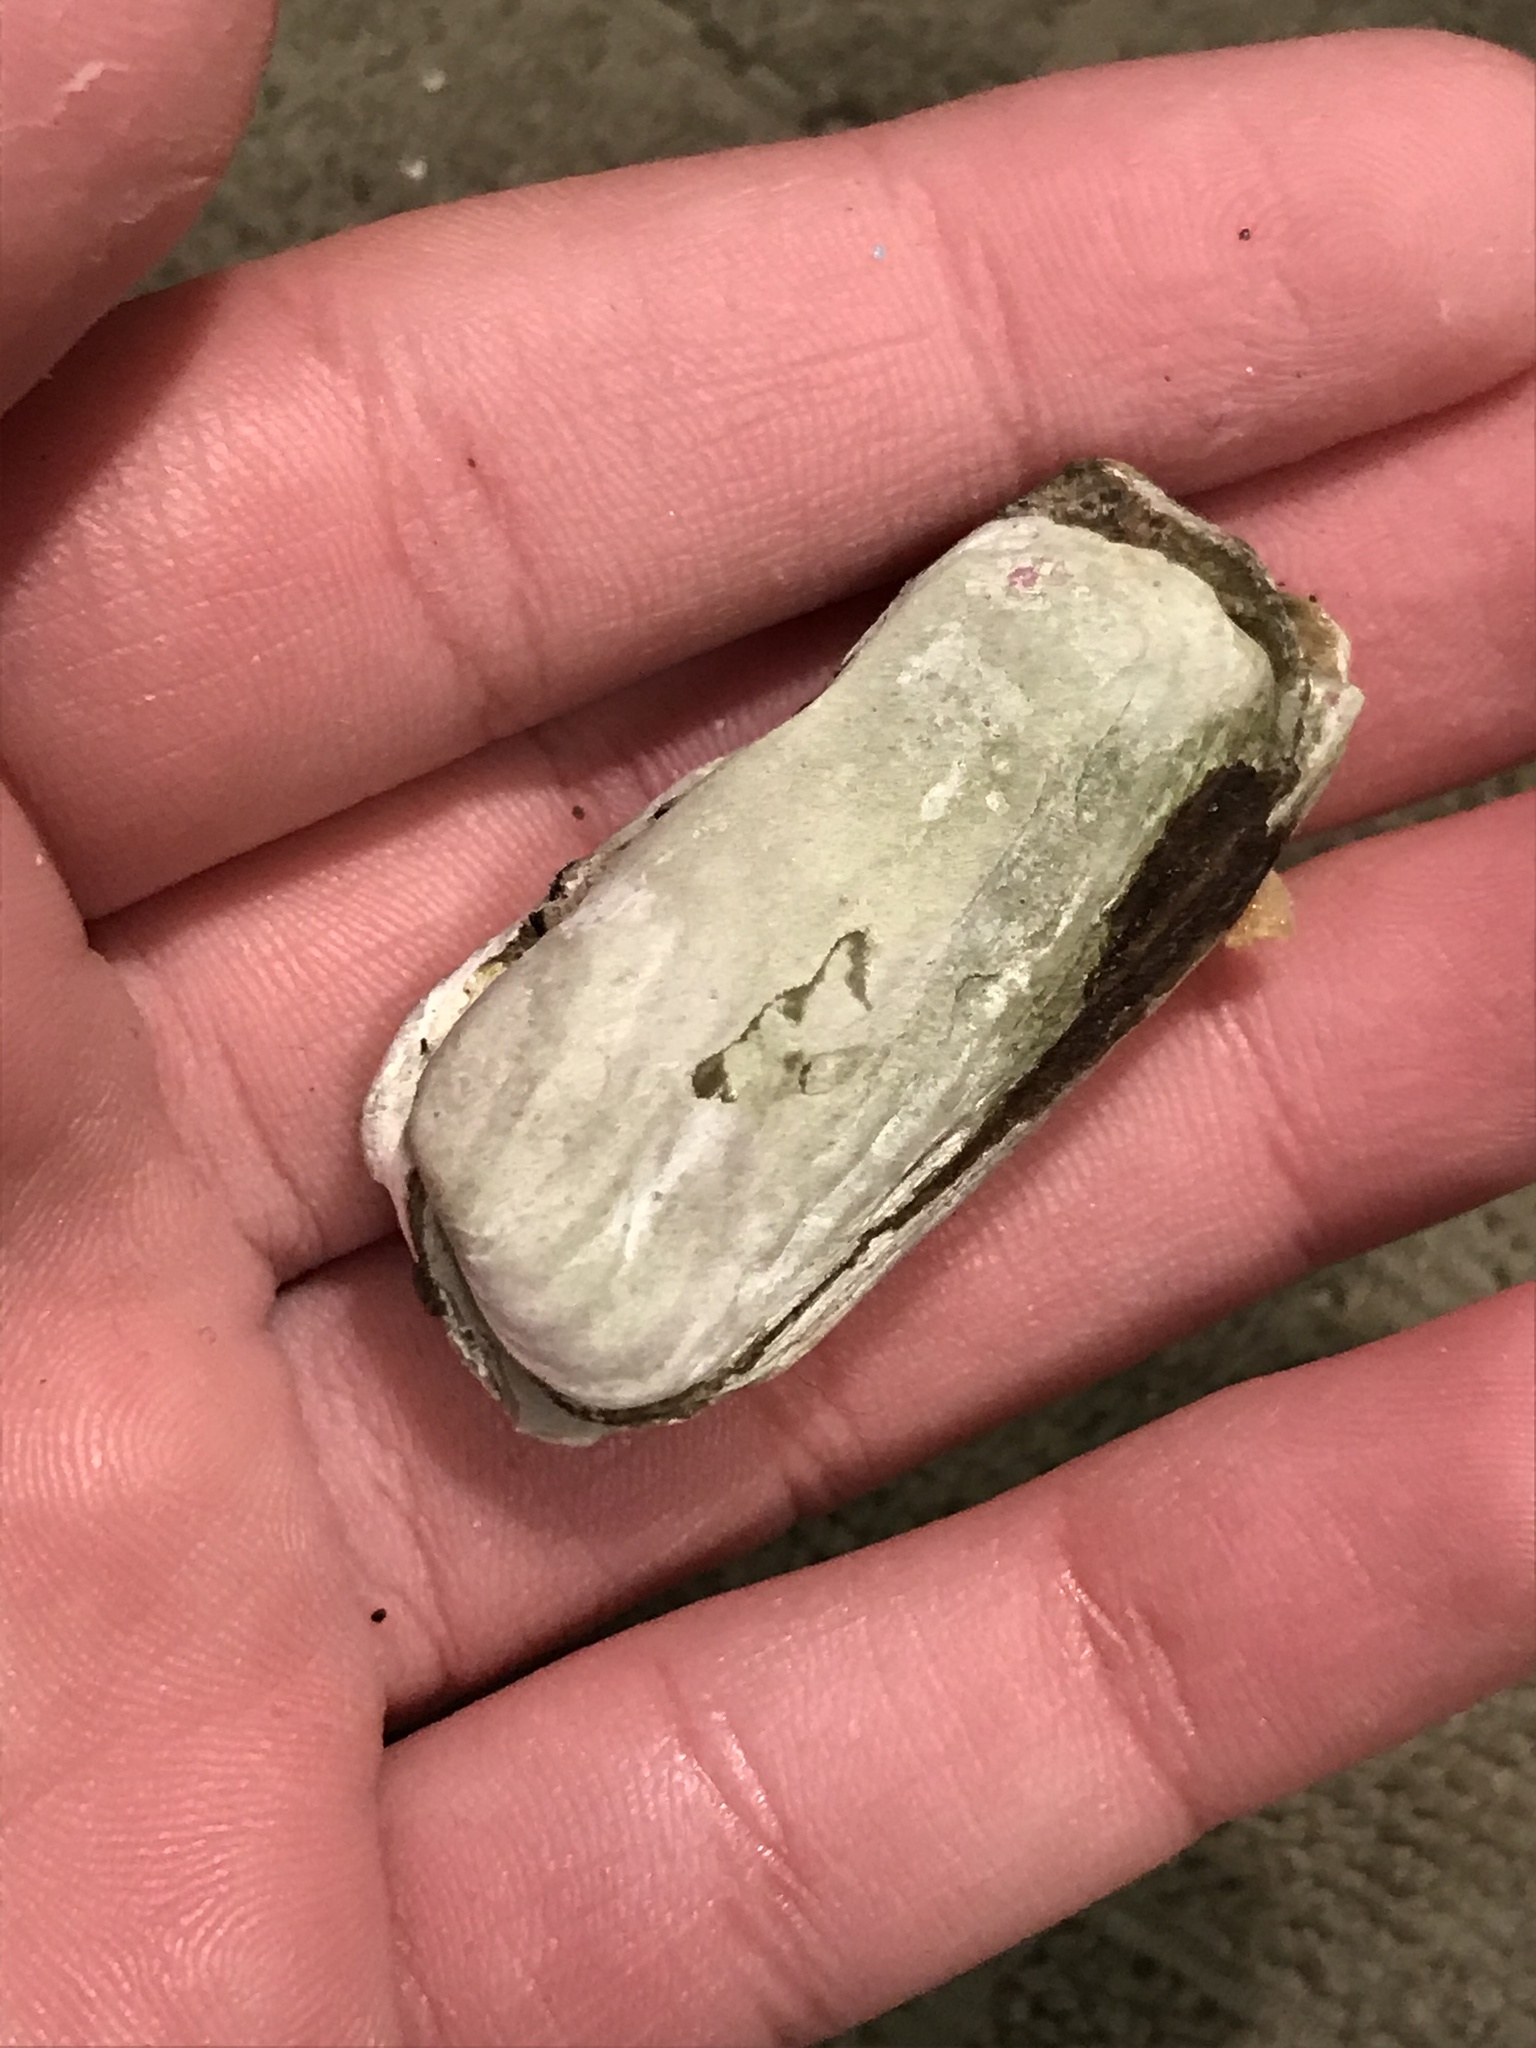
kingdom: Animalia
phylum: Mollusca
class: Bivalvia
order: Adapedonta
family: Hiatellidae
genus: Hiatella
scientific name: Hiatella arctica
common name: Arctic hiatella
